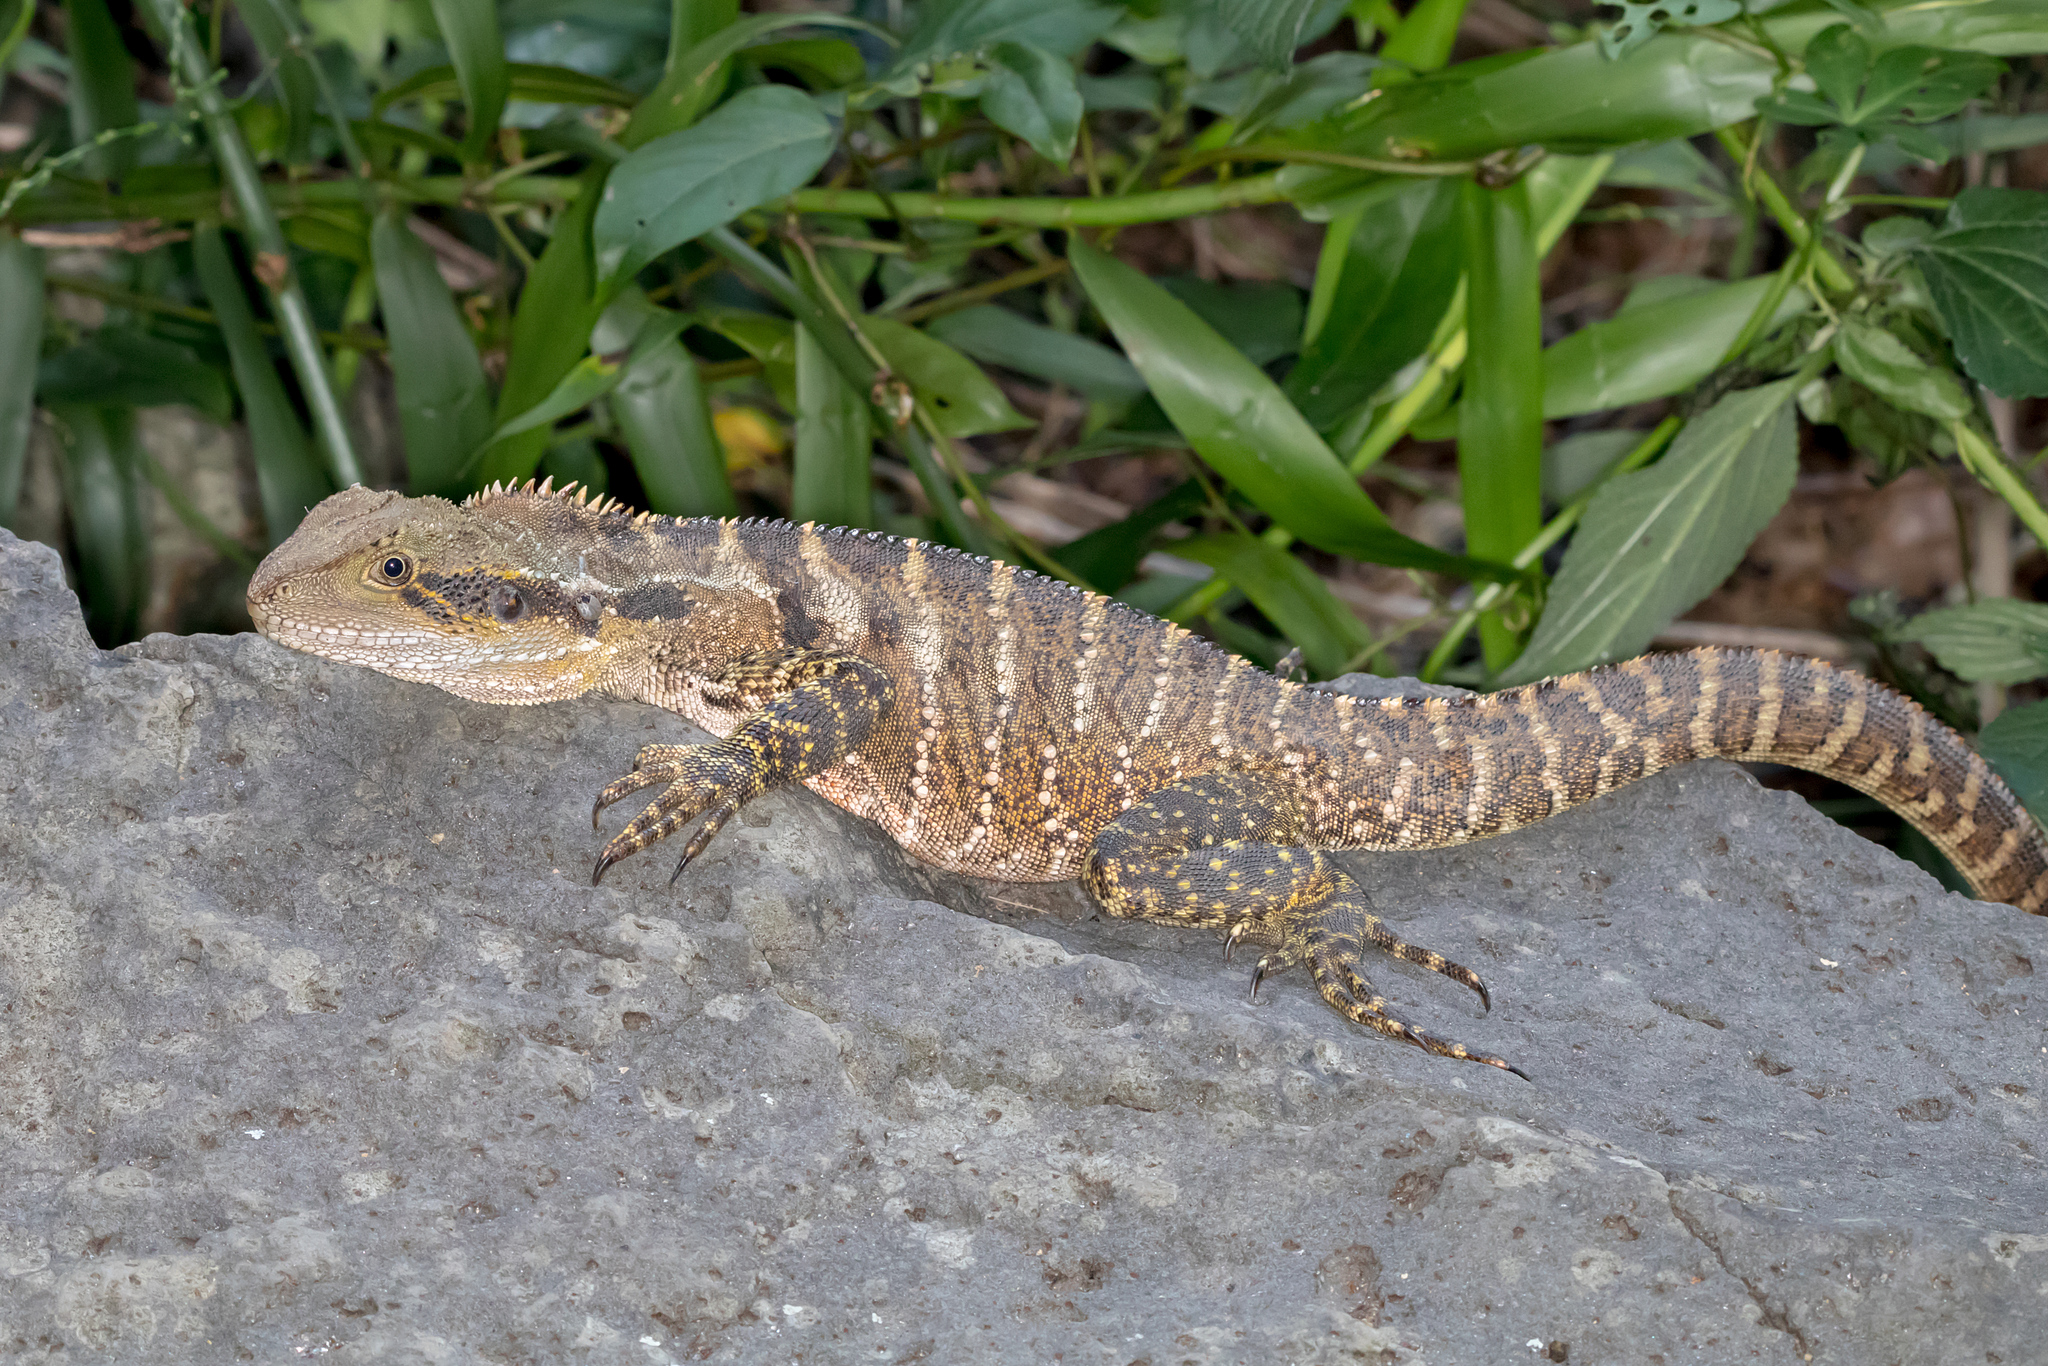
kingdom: Animalia
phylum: Chordata
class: Squamata
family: Agamidae
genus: Intellagama
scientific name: Intellagama lesueurii
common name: Eastern water dragon
